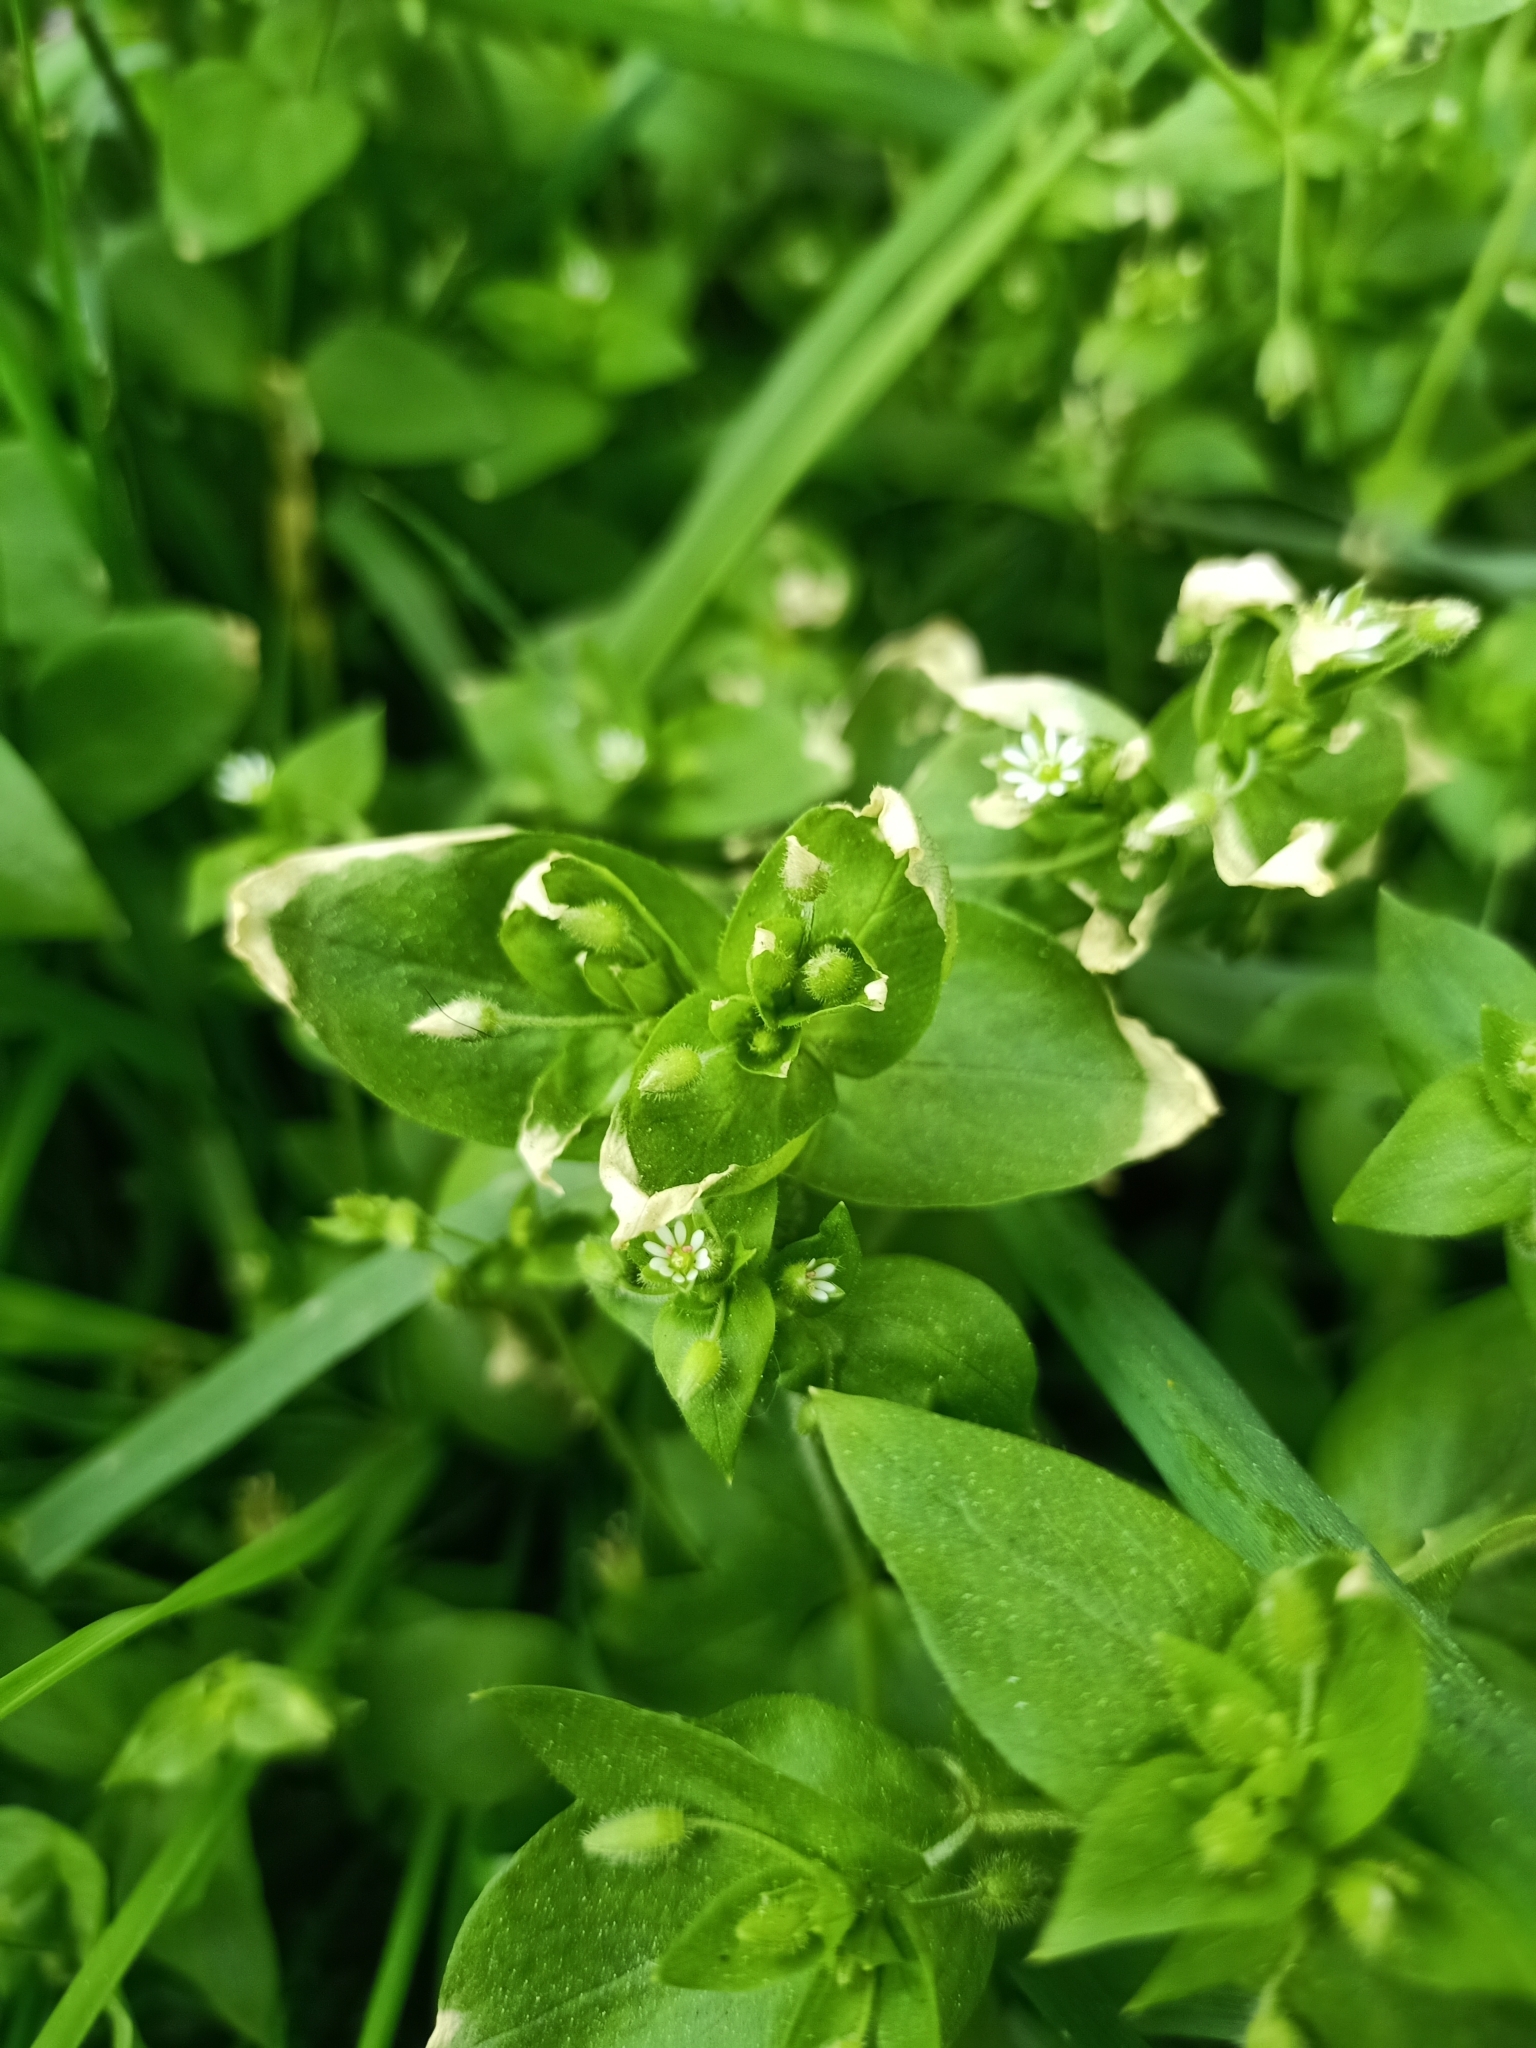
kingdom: Plantae
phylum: Tracheophyta
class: Magnoliopsida
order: Caryophyllales
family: Caryophyllaceae
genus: Stellaria
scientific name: Stellaria media
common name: Common chickweed
